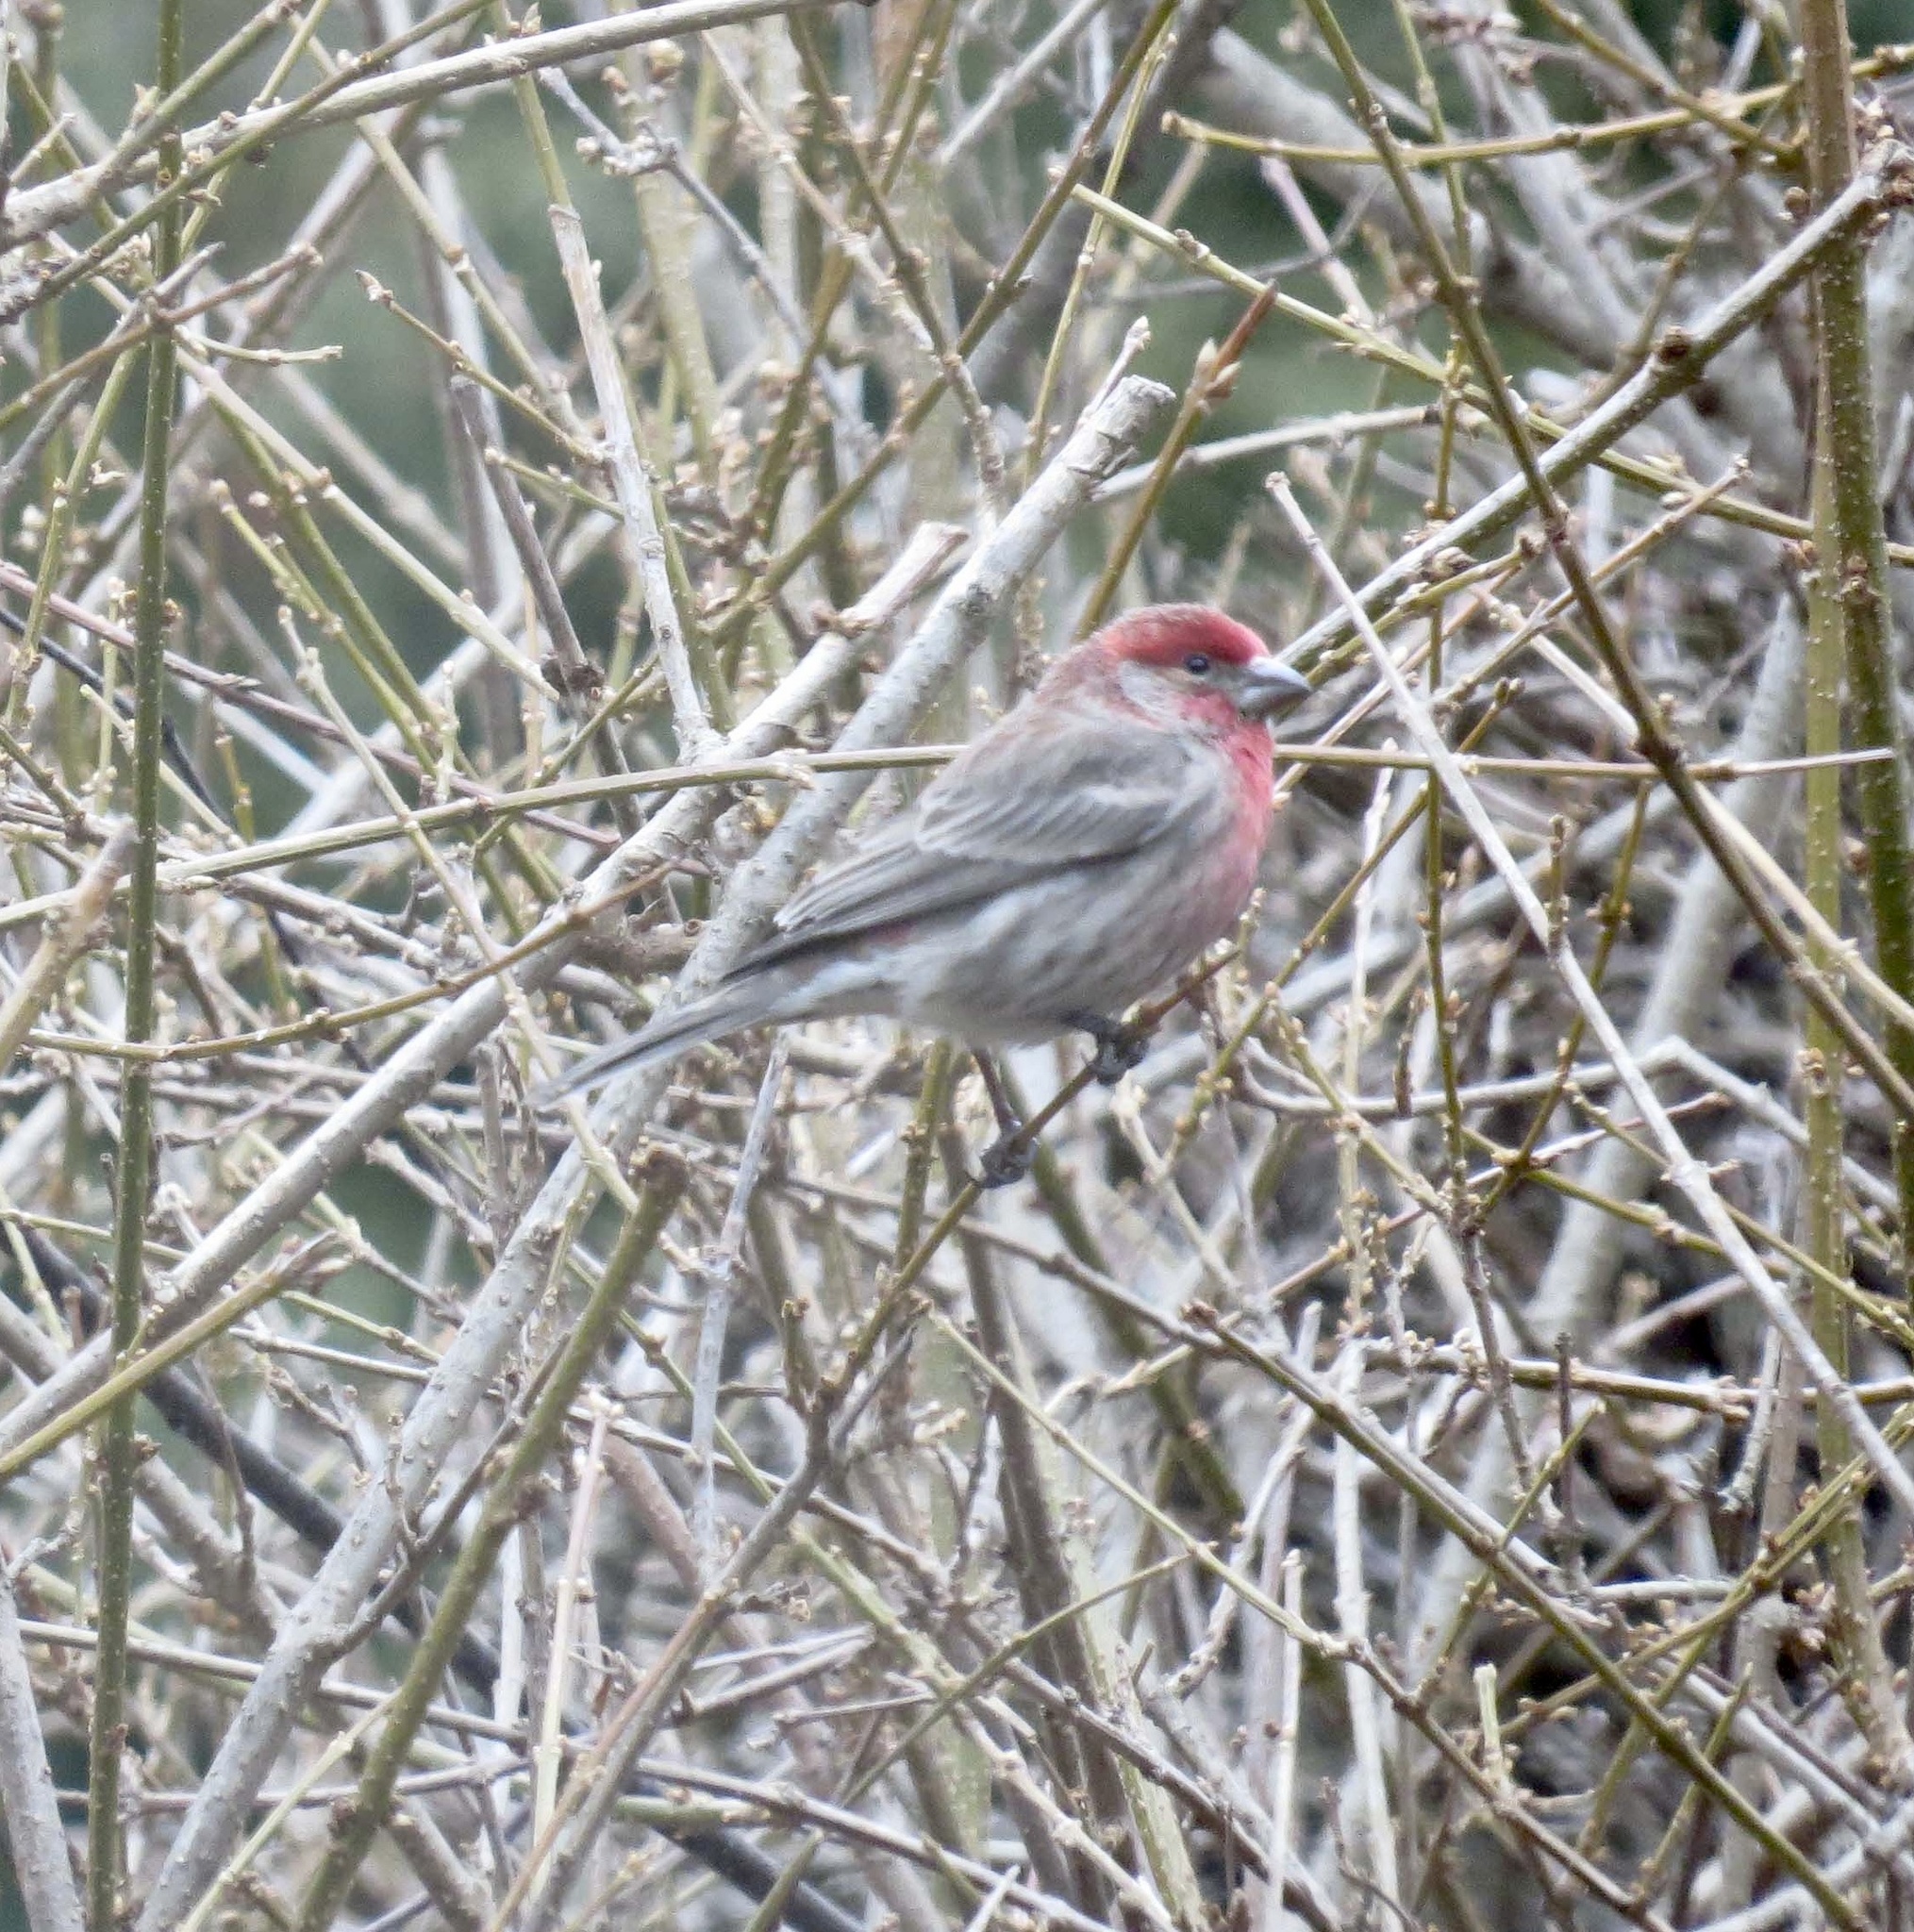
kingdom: Animalia
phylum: Chordata
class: Aves
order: Passeriformes
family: Fringillidae
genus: Haemorhous
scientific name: Haemorhous mexicanus
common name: House finch
